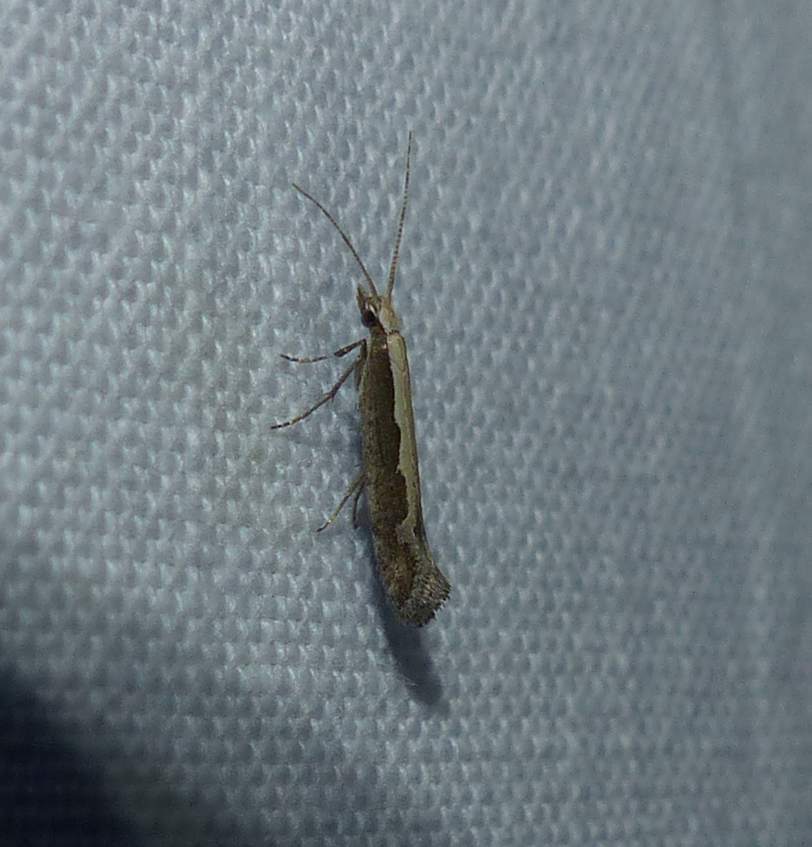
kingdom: Animalia
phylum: Arthropoda
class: Insecta
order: Lepidoptera
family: Plutellidae
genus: Plutella
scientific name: Plutella xylostella
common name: Diamond-back moth
